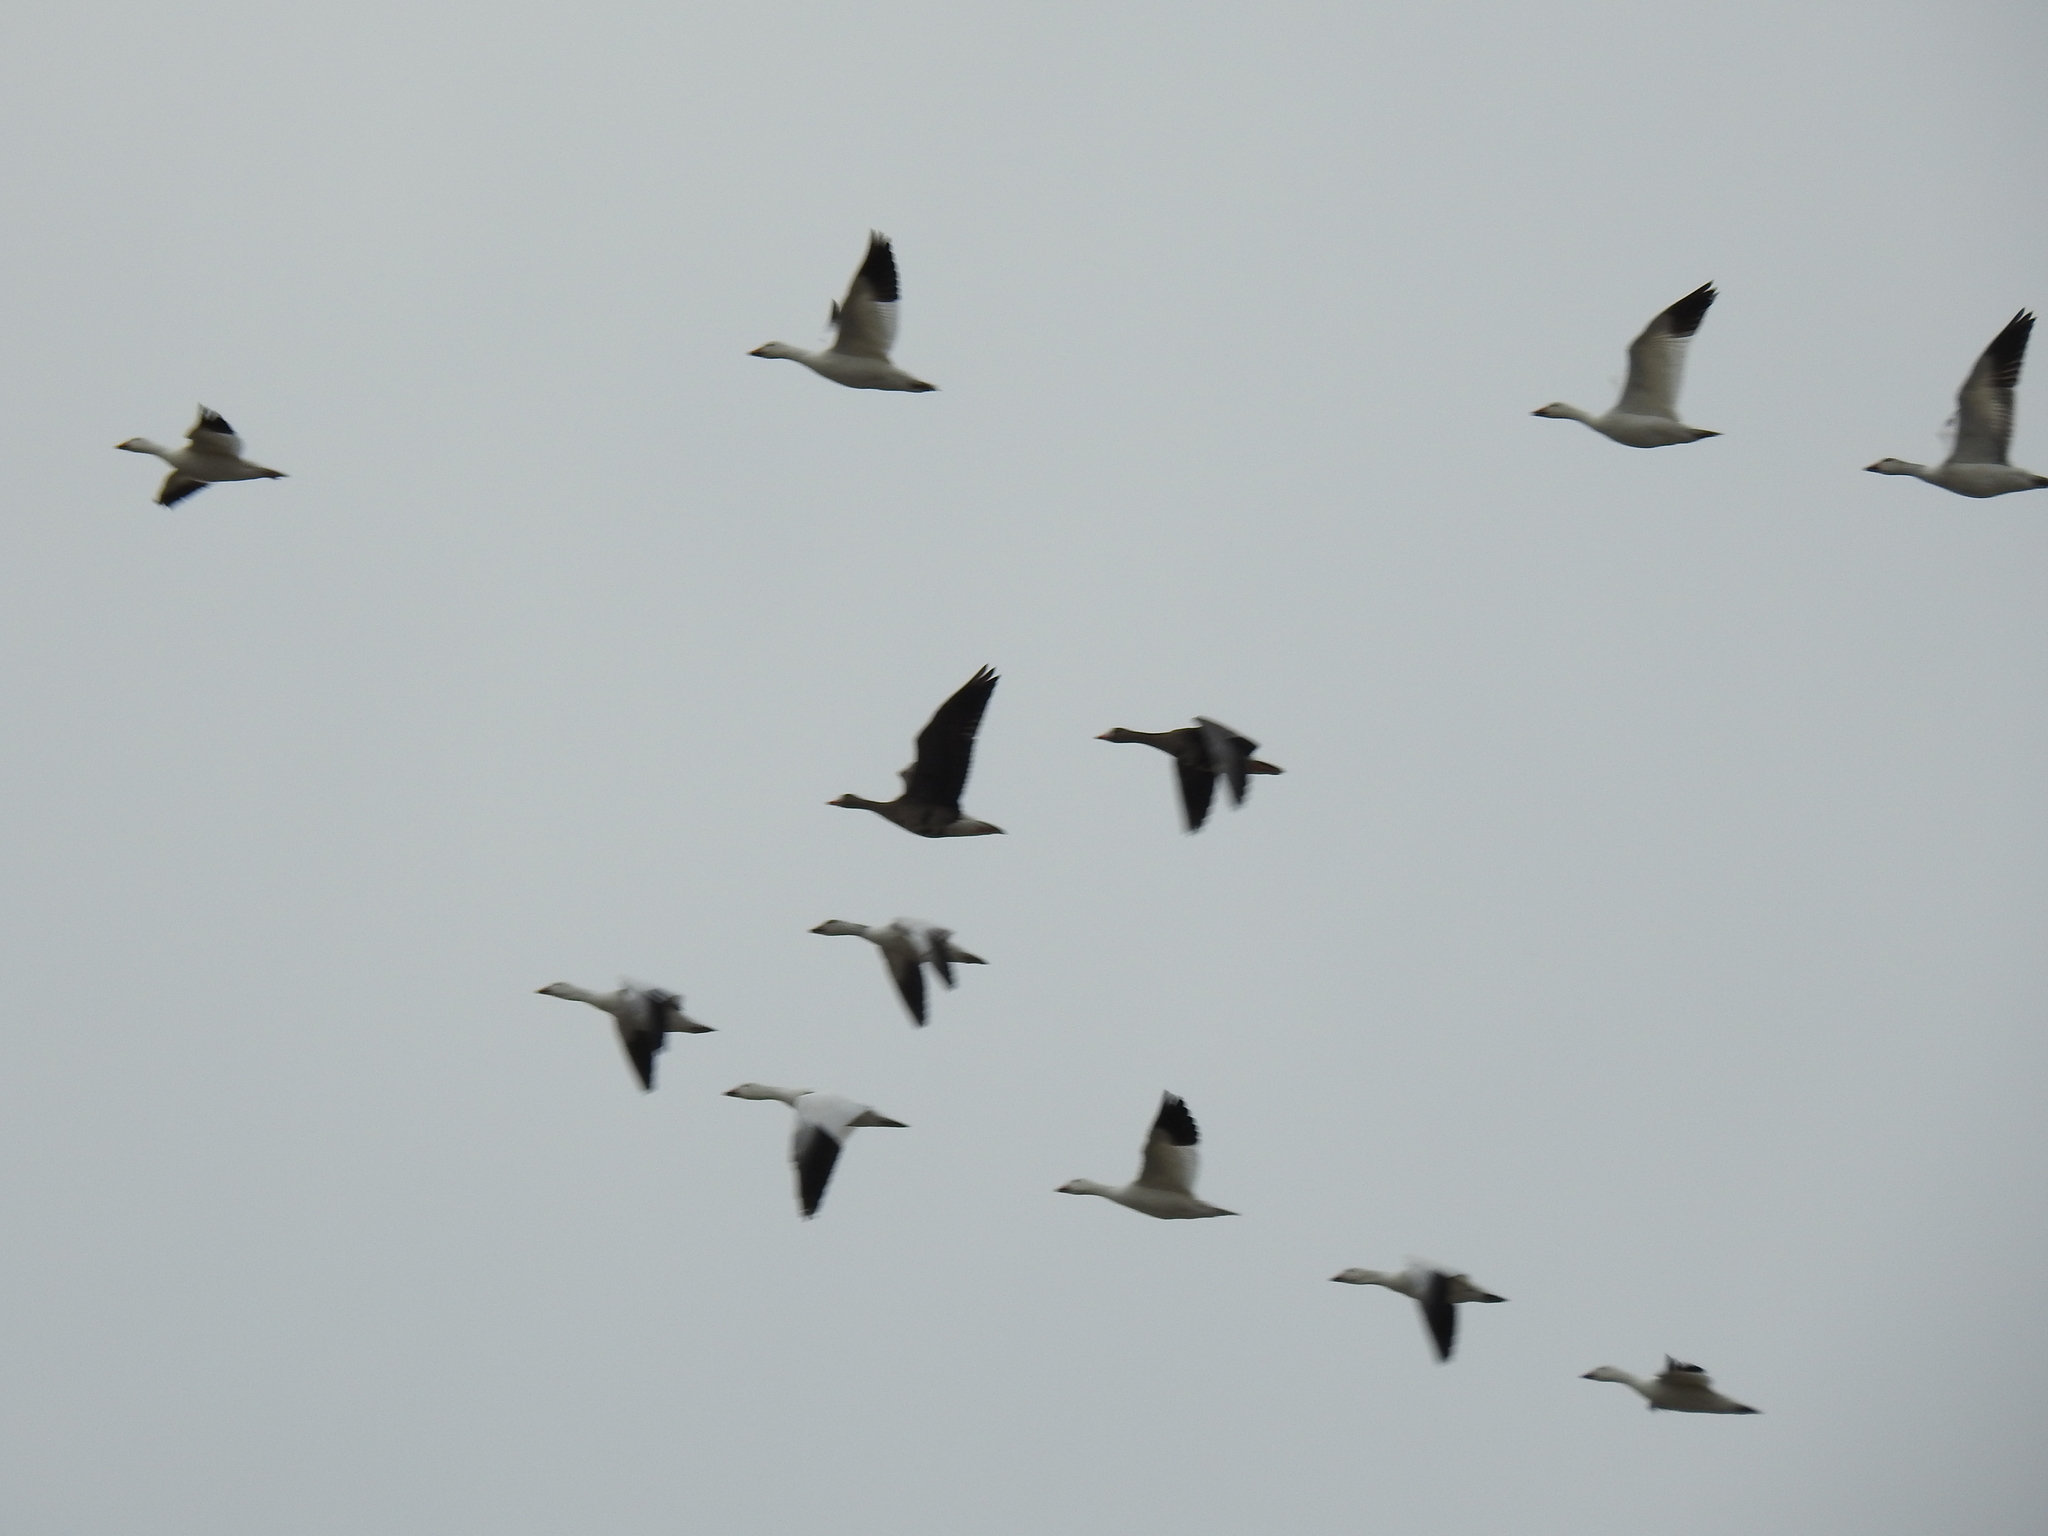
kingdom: Animalia
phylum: Chordata
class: Aves
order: Anseriformes
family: Anatidae
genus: Anser
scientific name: Anser albifrons
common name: Greater white-fronted goose
